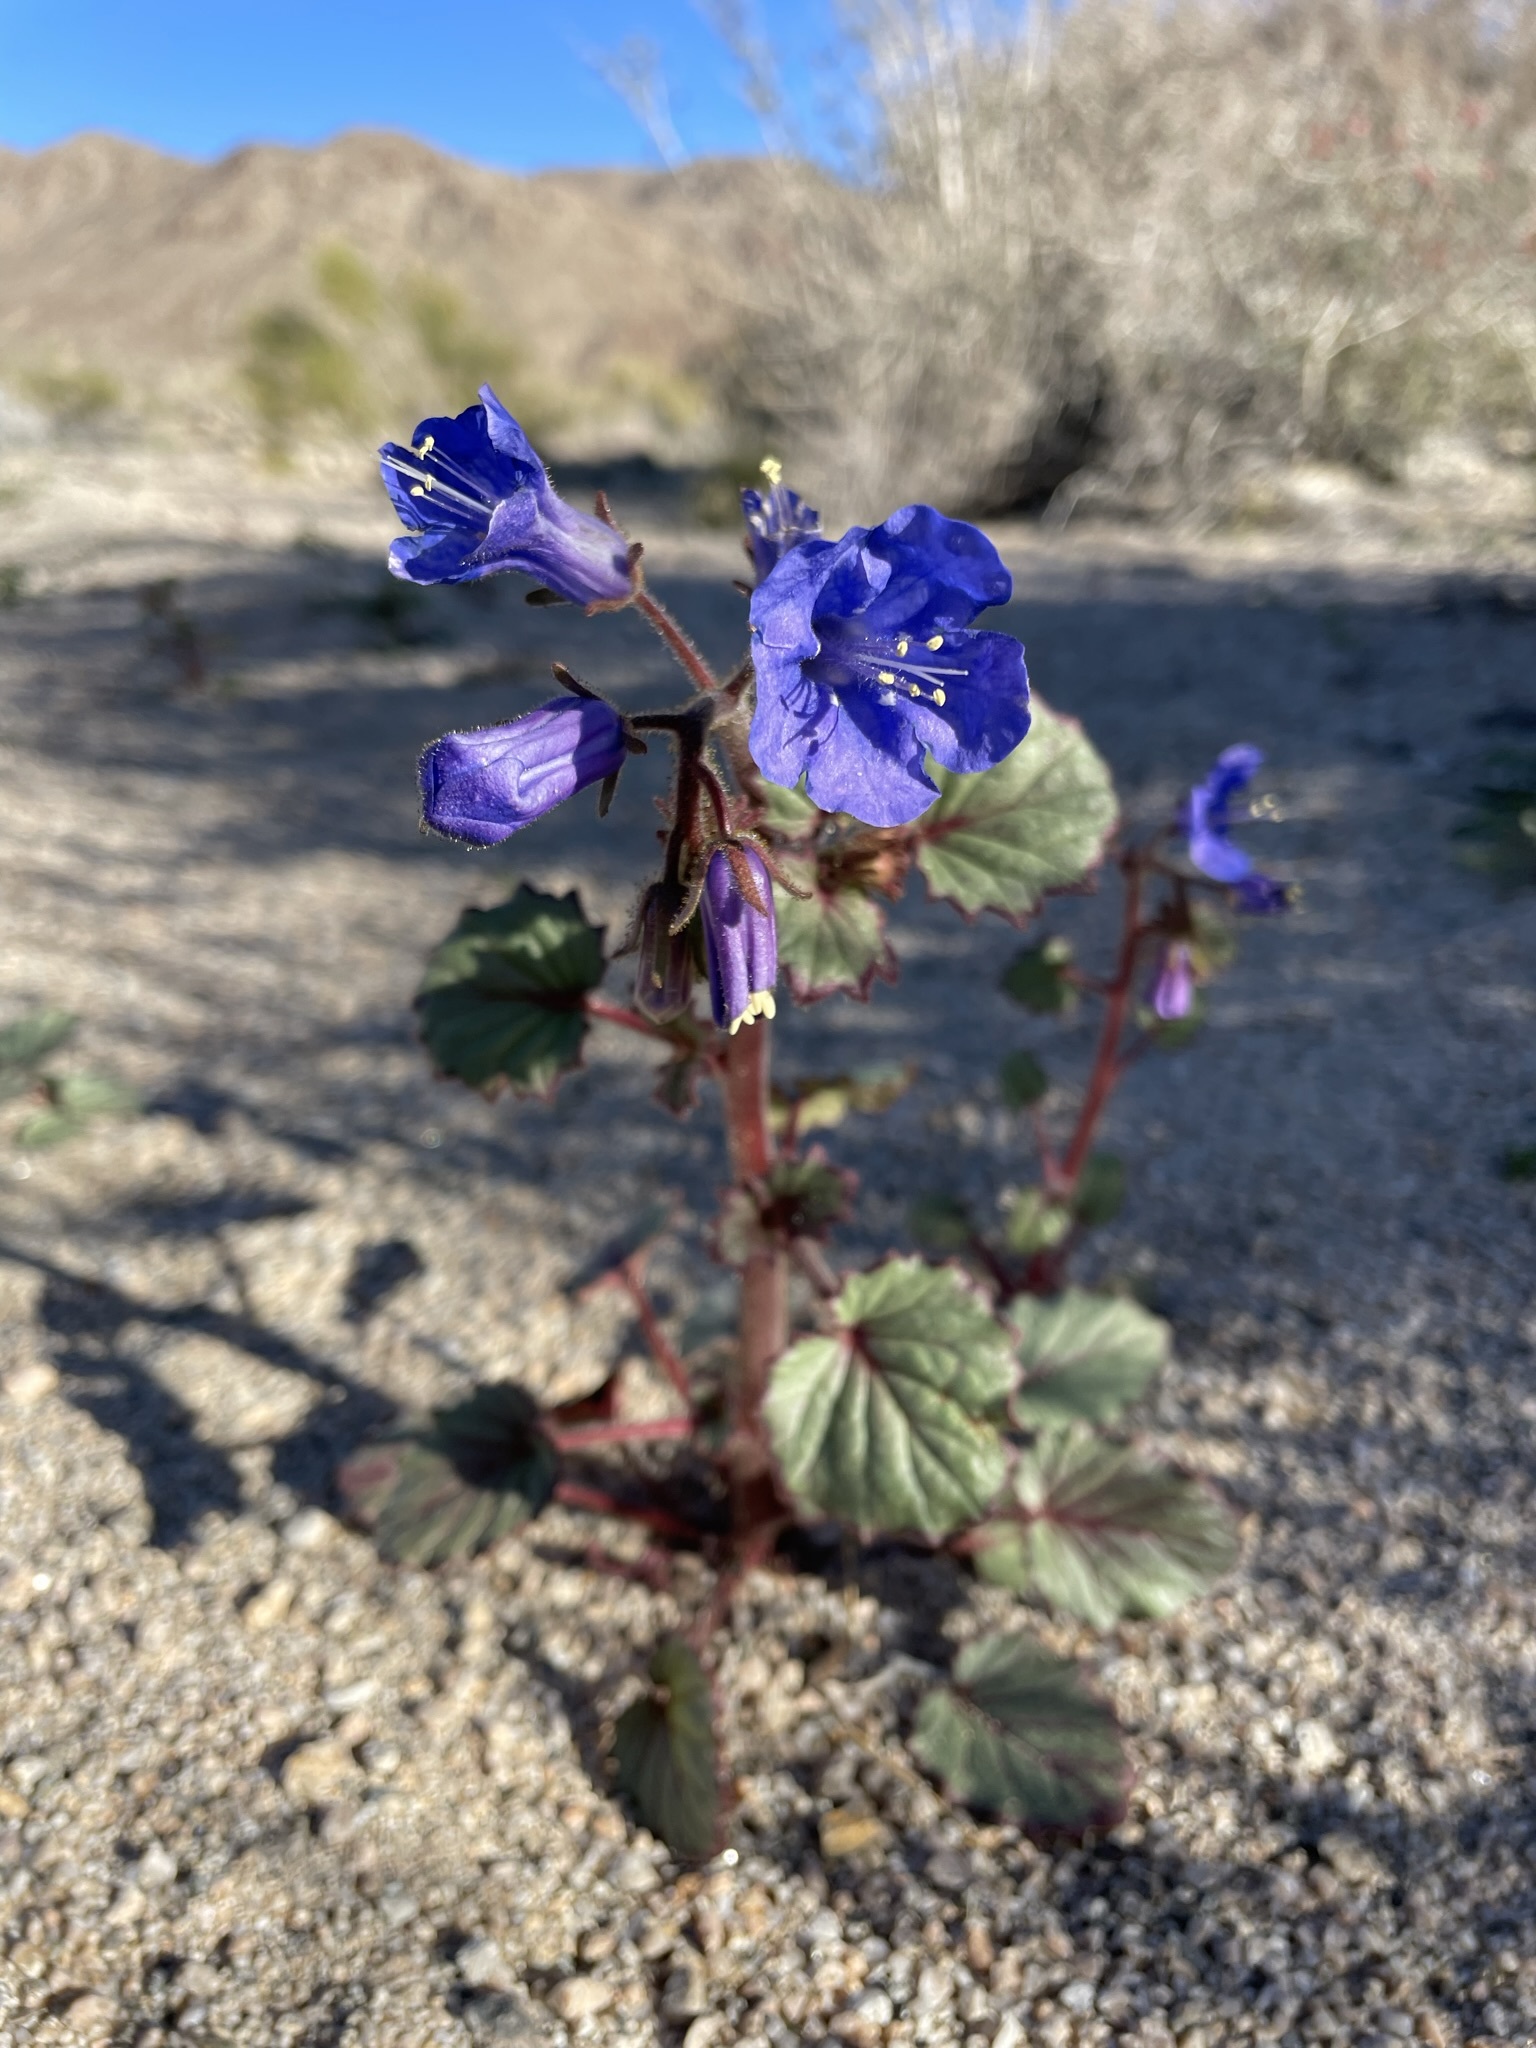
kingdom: Plantae
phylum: Tracheophyta
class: Magnoliopsida
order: Boraginales
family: Hydrophyllaceae
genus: Phacelia
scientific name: Phacelia campanularia
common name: California bluebell
